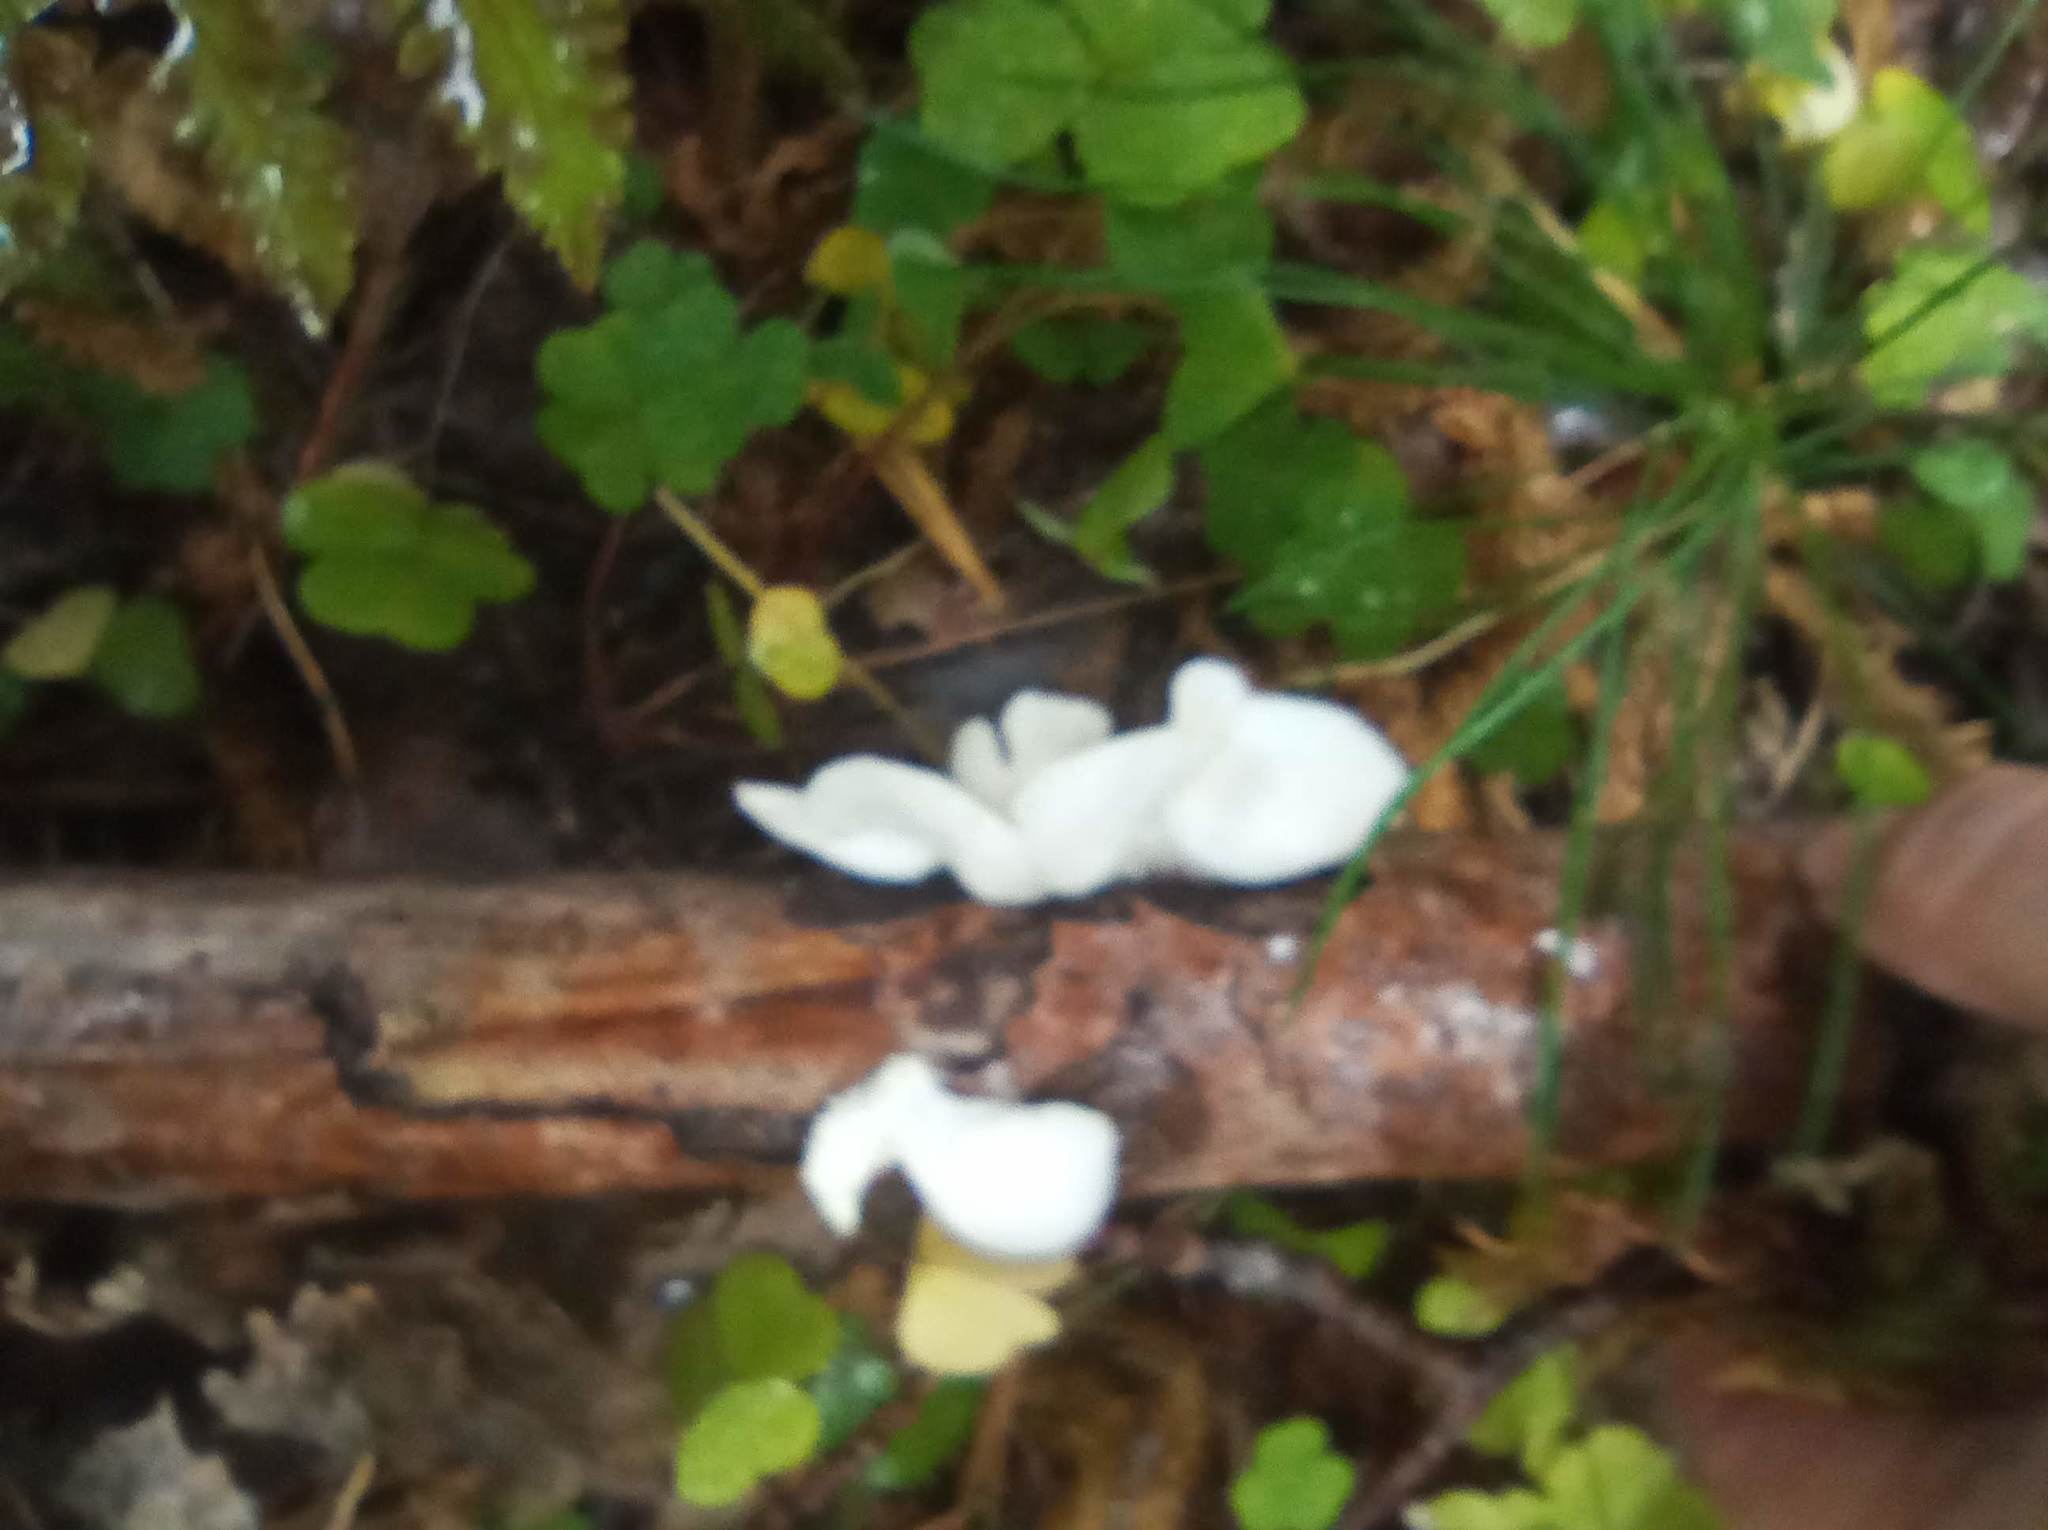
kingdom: Fungi
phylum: Basidiomycota
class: Agaricomycetes
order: Agaricales
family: Pleurotaceae
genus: Pleurotus
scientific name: Pleurotus pulmonarius
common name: Pale oyster
